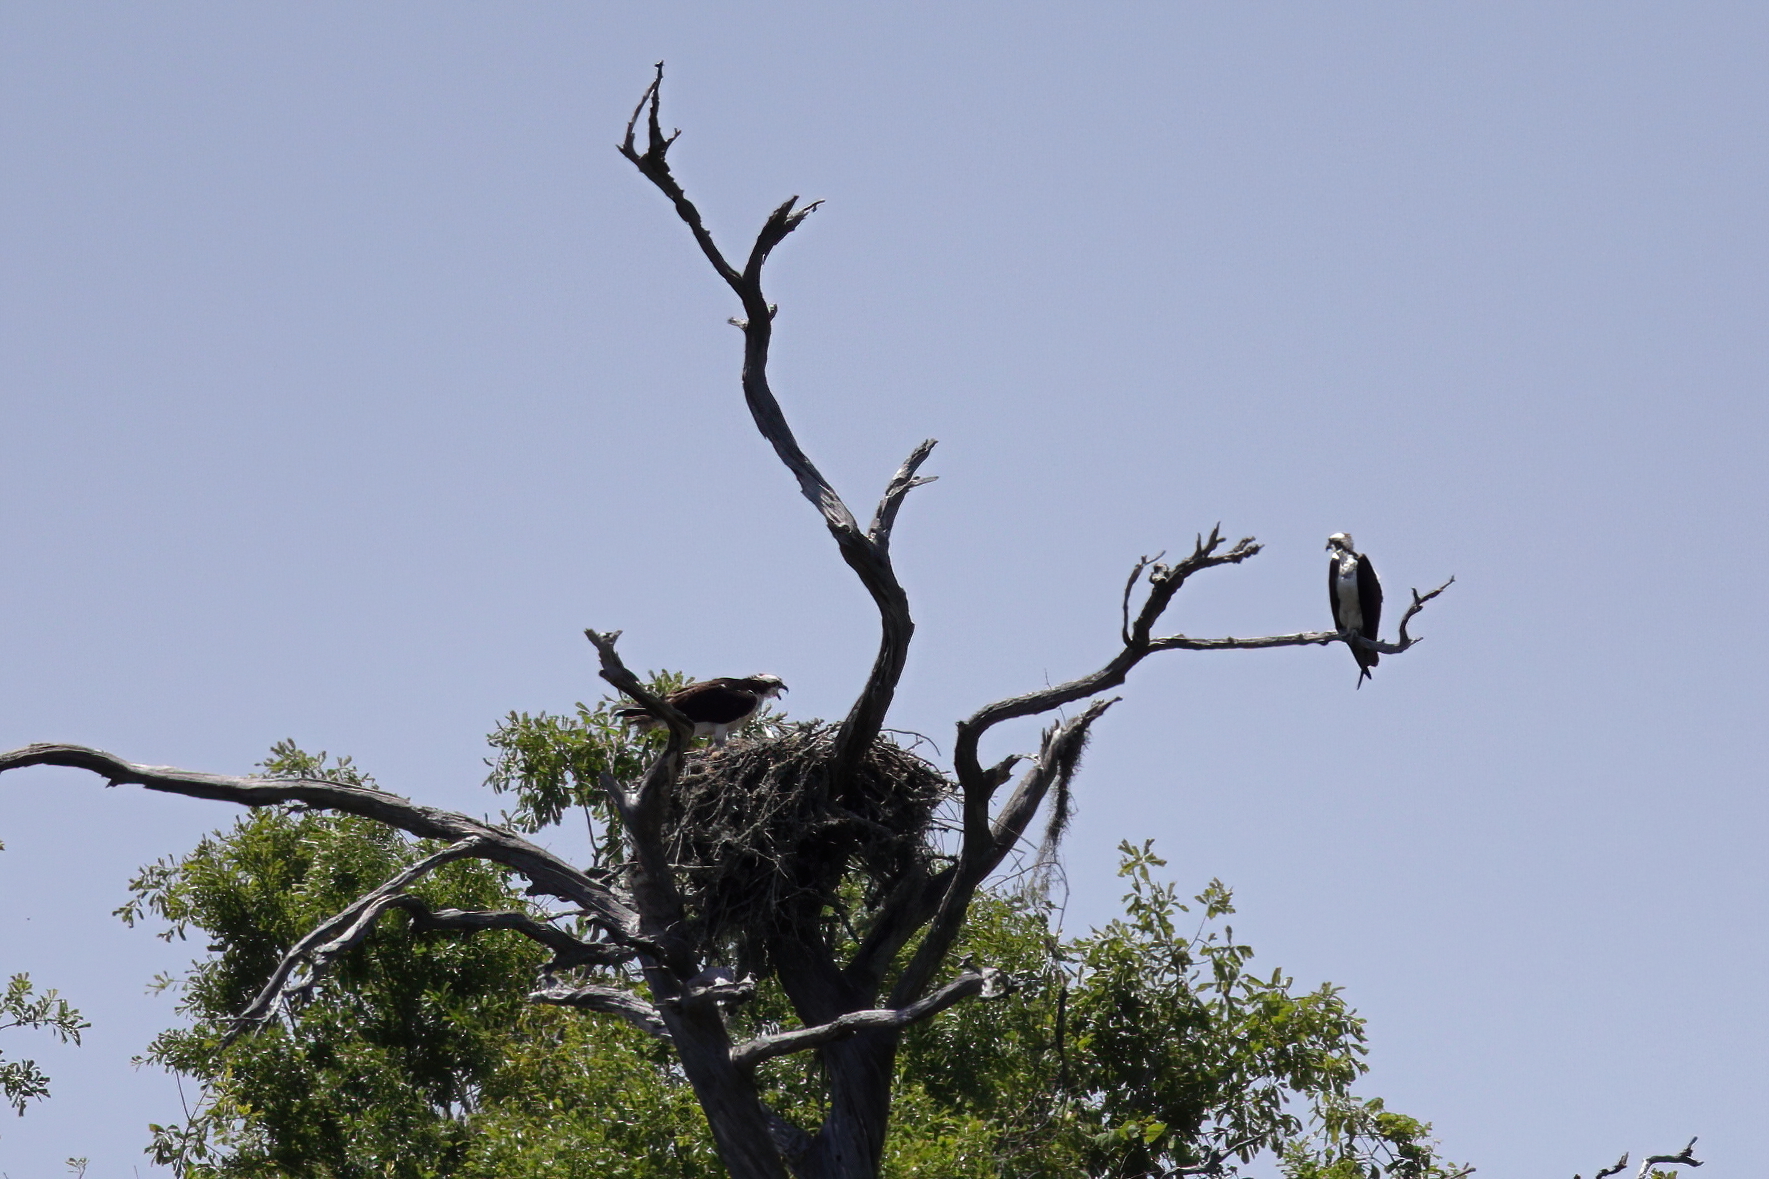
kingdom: Animalia
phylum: Chordata
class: Aves
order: Accipitriformes
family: Pandionidae
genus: Pandion
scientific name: Pandion haliaetus
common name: Osprey
